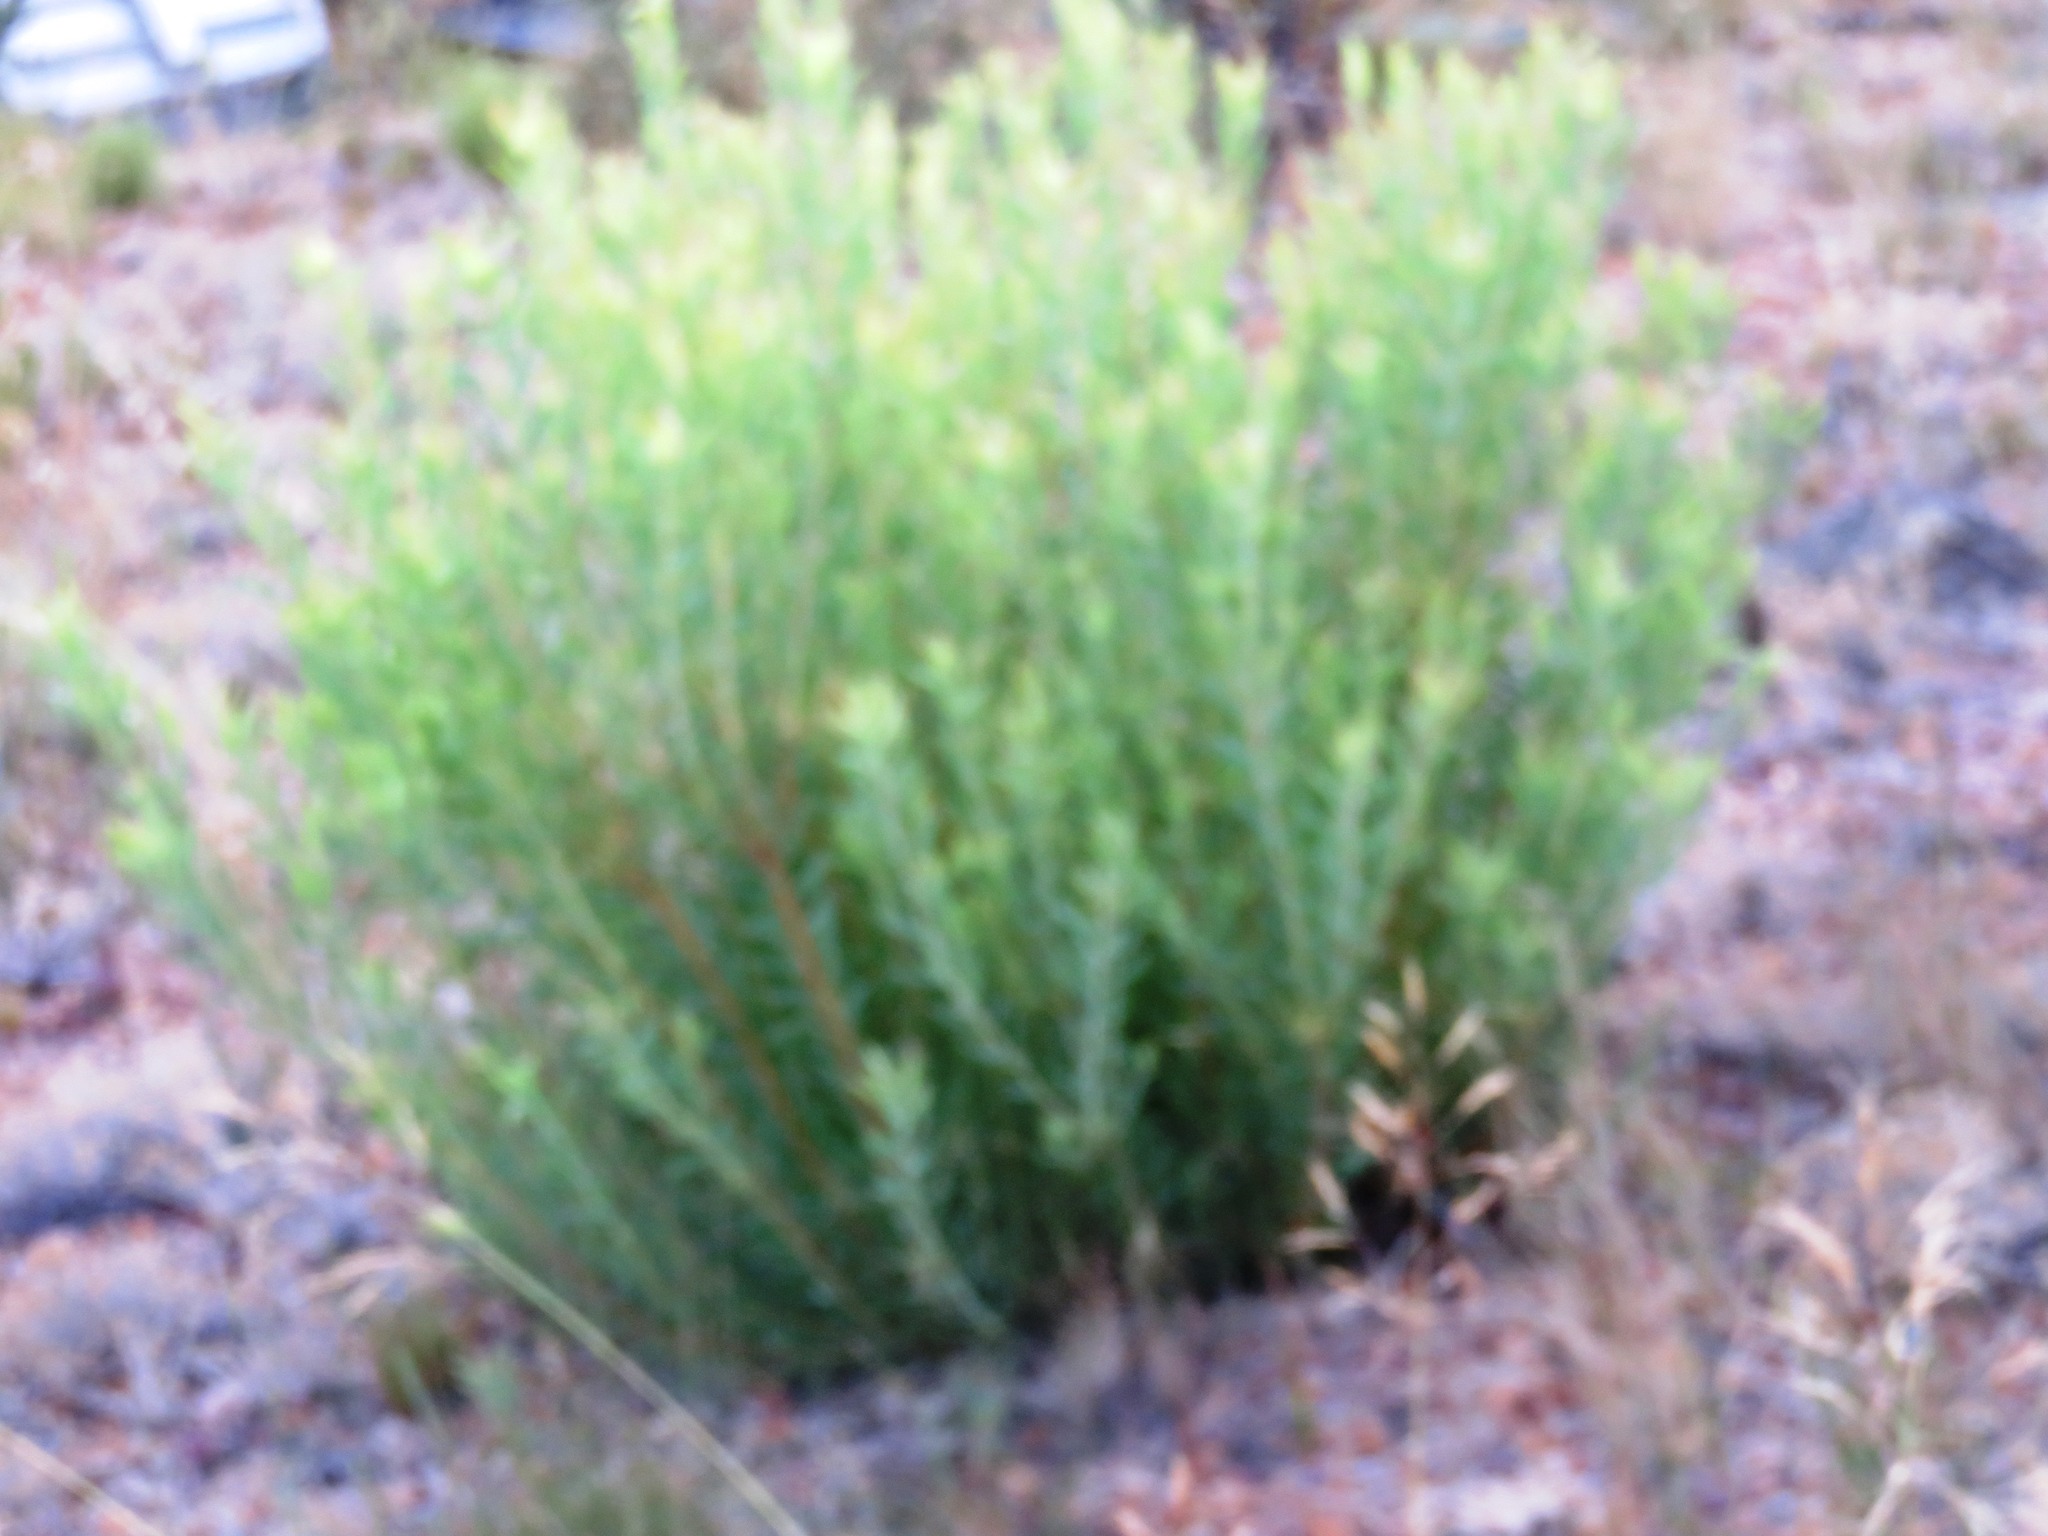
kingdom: Plantae
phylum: Tracheophyta
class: Magnoliopsida
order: Proteales
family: Proteaceae
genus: Leucadendron
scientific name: Leucadendron salignum
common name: Common sunshine conebush
